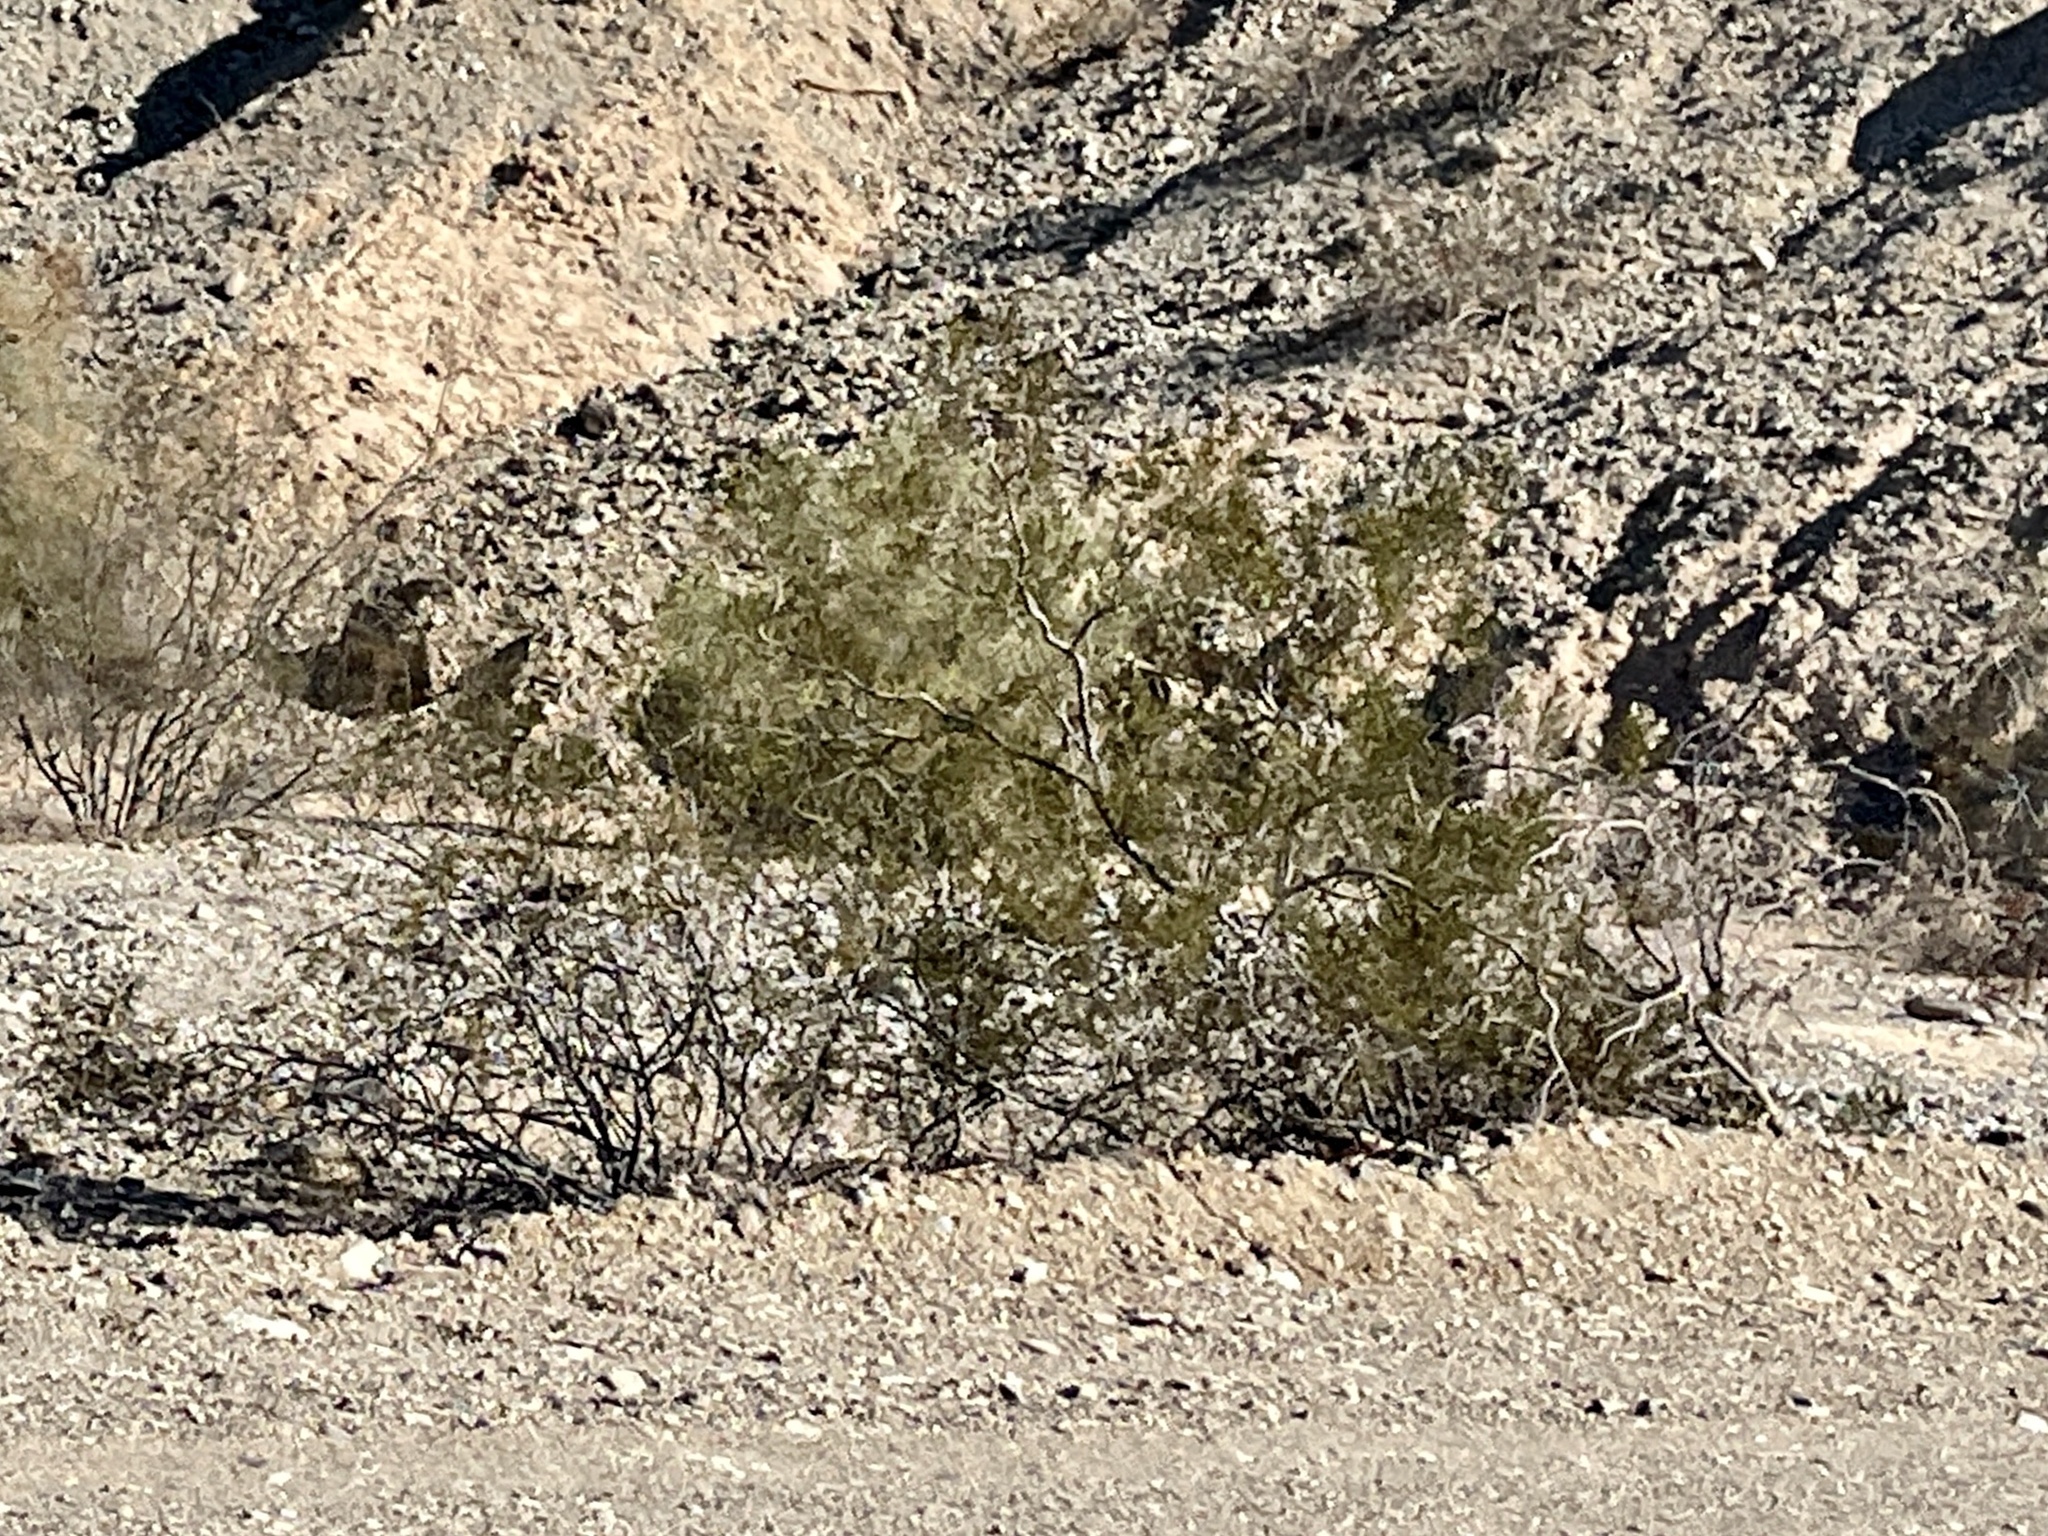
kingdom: Plantae
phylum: Tracheophyta
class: Magnoliopsida
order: Zygophyllales
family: Zygophyllaceae
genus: Larrea
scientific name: Larrea tridentata
